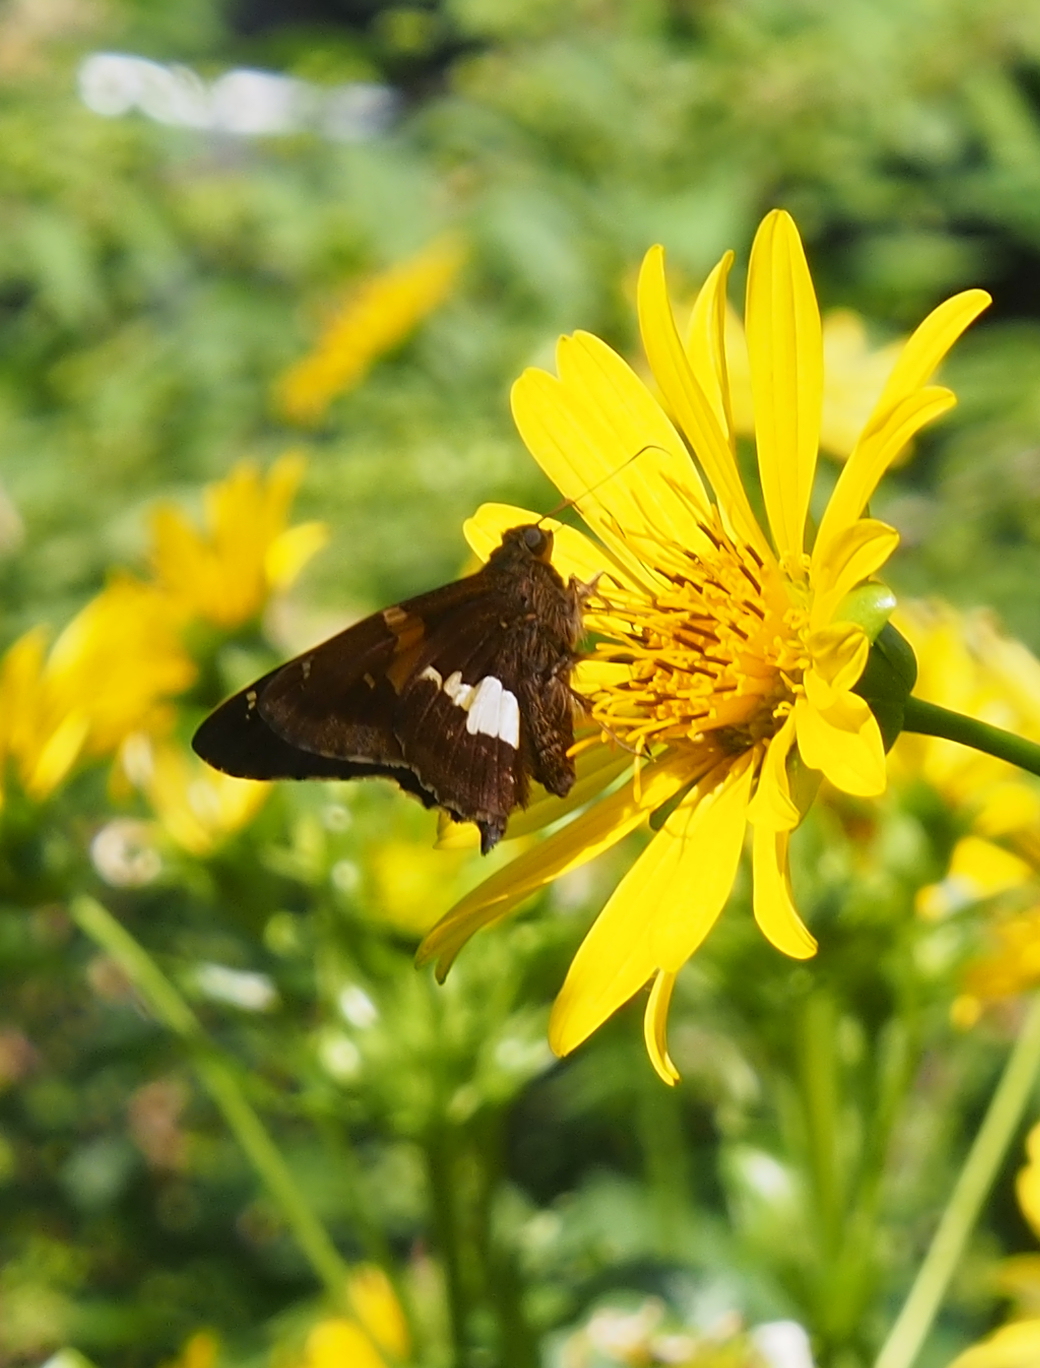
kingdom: Animalia
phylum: Arthropoda
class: Insecta
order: Lepidoptera
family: Hesperiidae
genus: Epargyreus
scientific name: Epargyreus clarus
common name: Silver-spotted skipper
